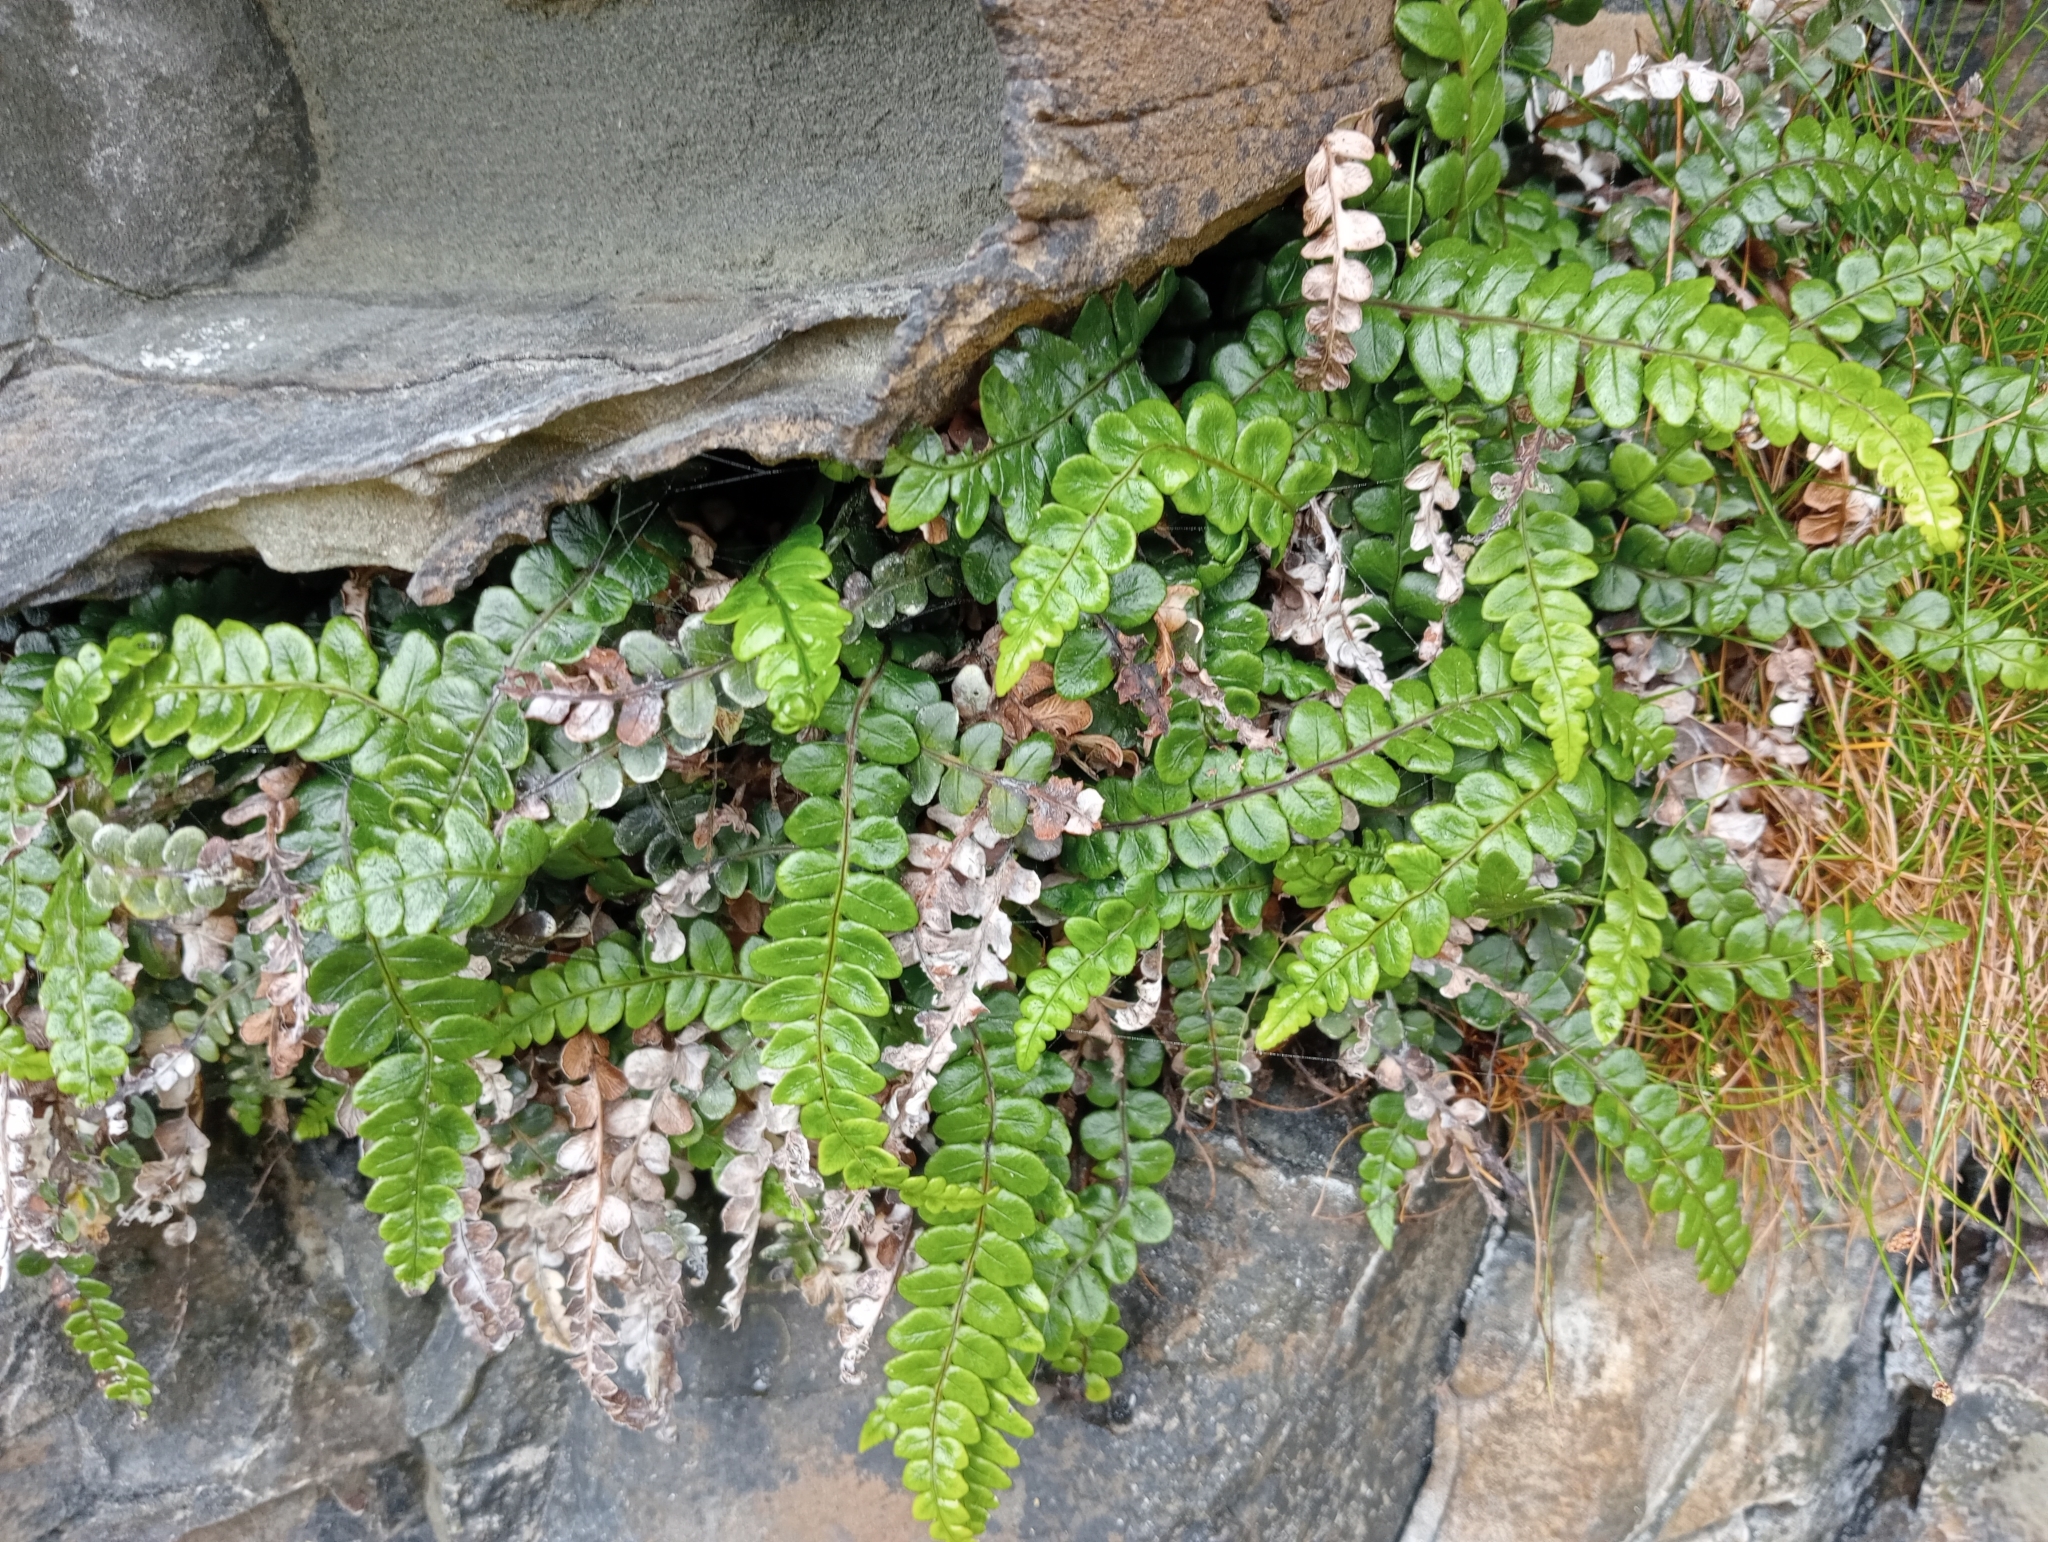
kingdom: Plantae
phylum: Tracheophyta
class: Polypodiopsida
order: Polypodiales
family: Blechnaceae
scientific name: Blechnaceae
